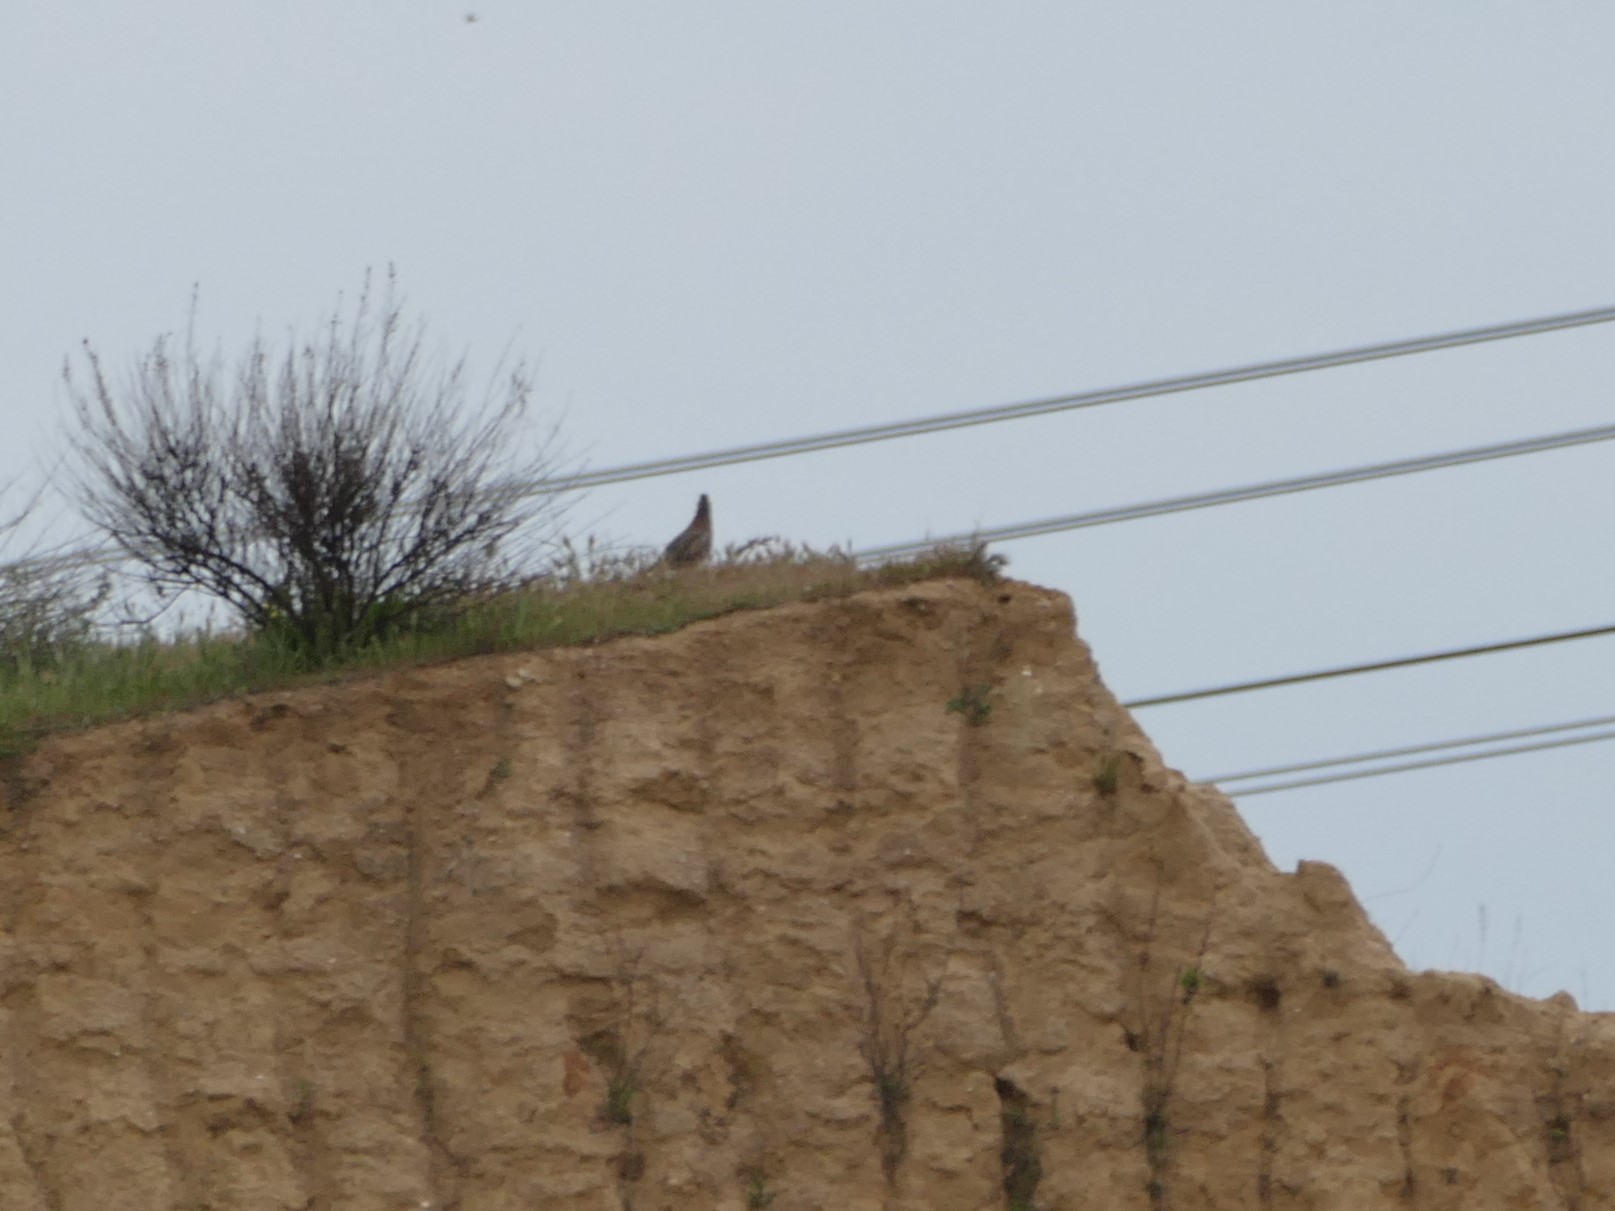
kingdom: Animalia
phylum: Chordata
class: Aves
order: Galliformes
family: Phasianidae
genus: Alectoris
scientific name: Alectoris rufa
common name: Red-legged partridge
